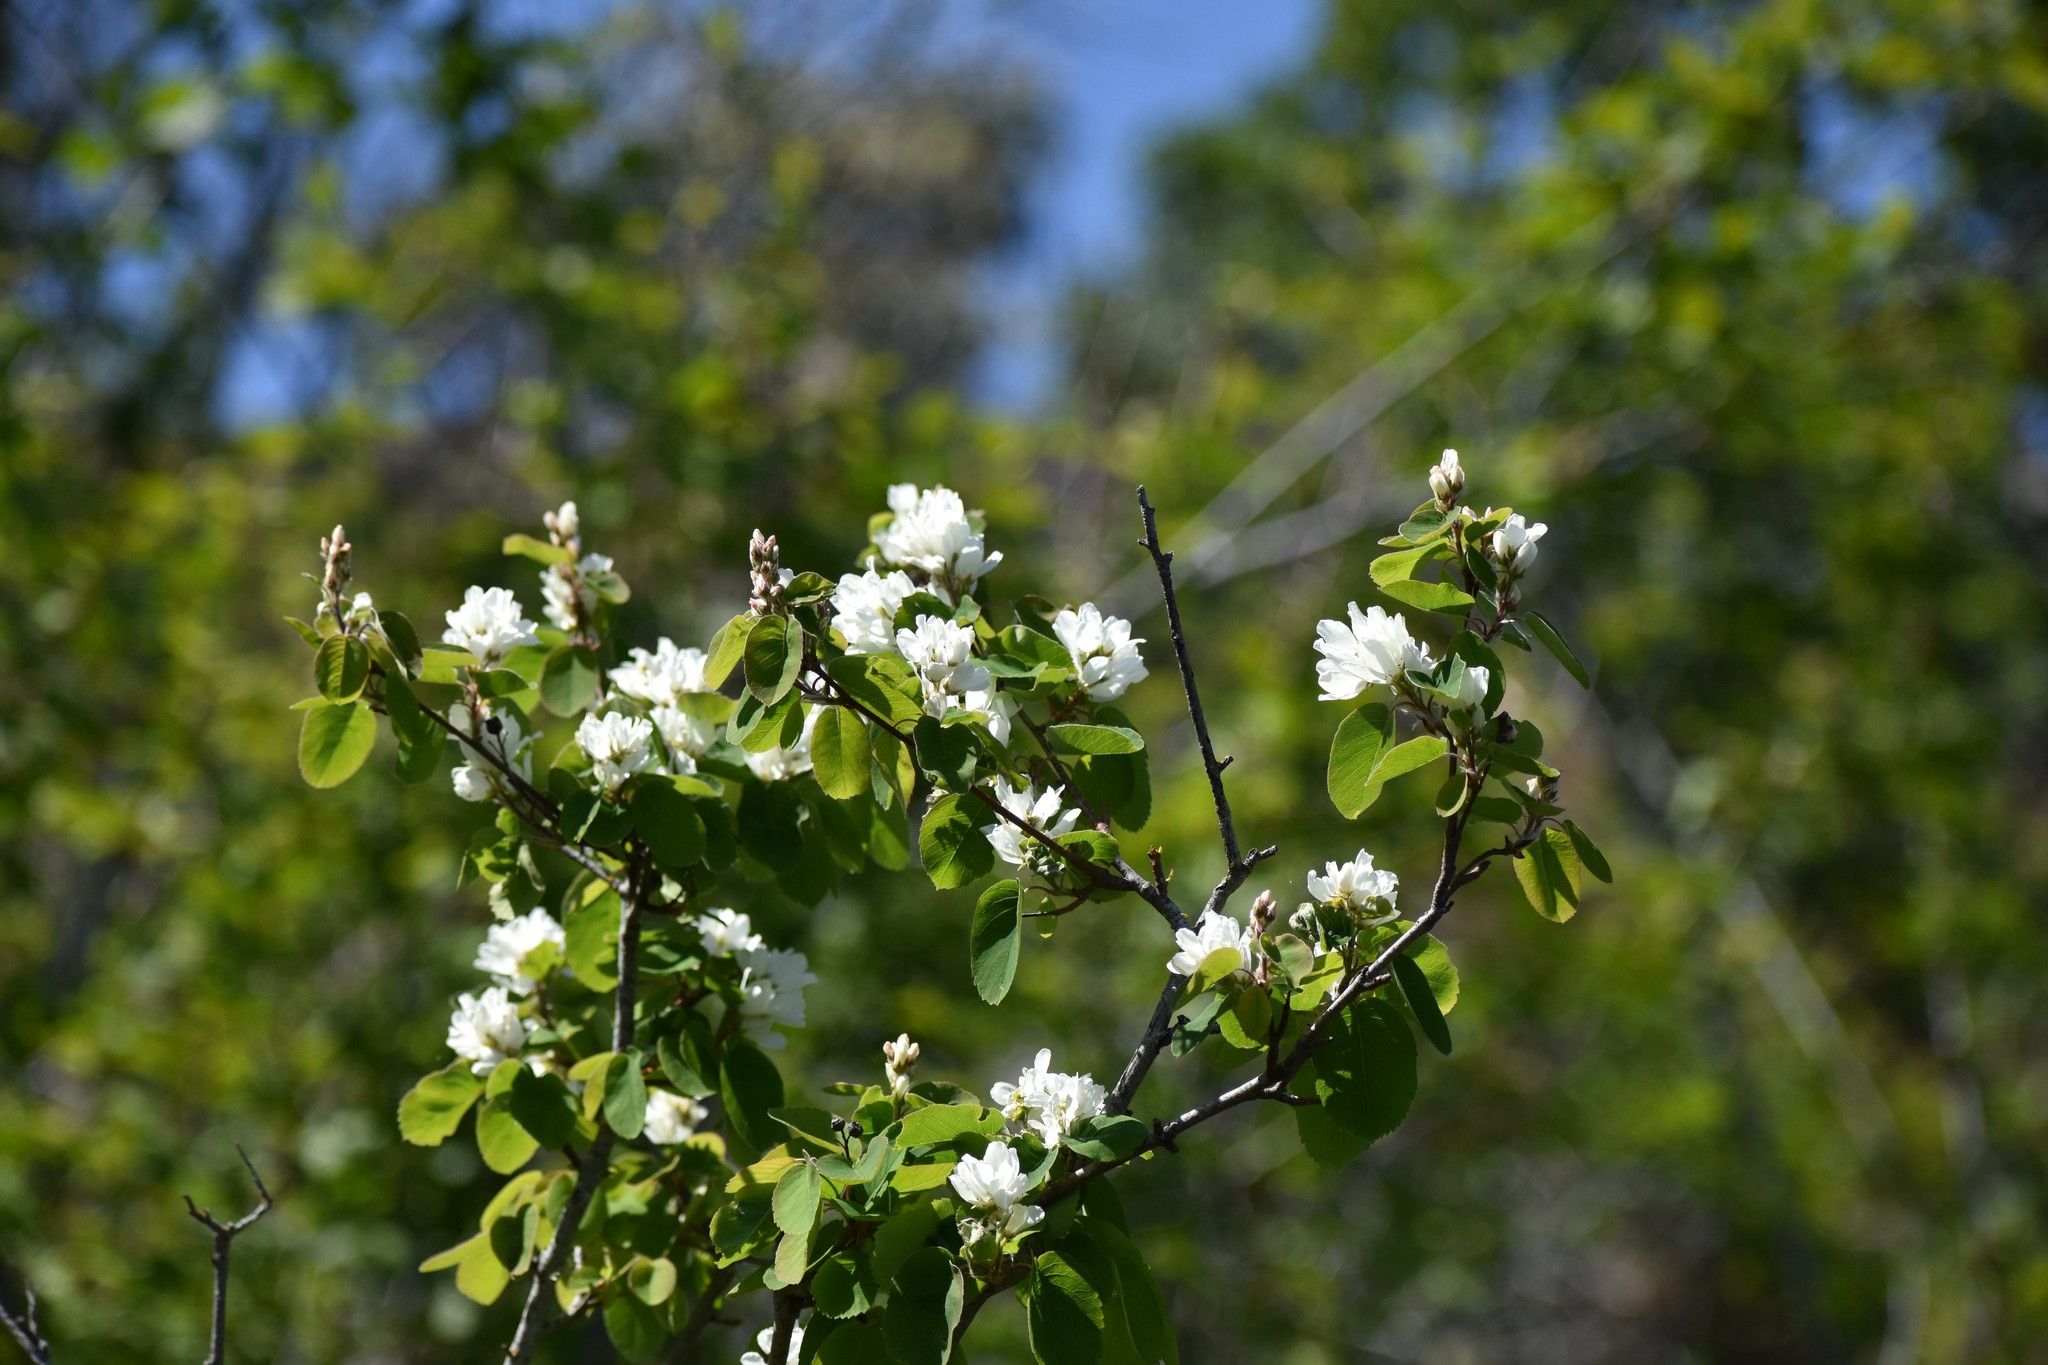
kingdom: Plantae
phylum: Tracheophyta
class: Magnoliopsida
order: Rosales
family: Rosaceae
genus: Amelanchier
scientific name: Amelanchier alnifolia
